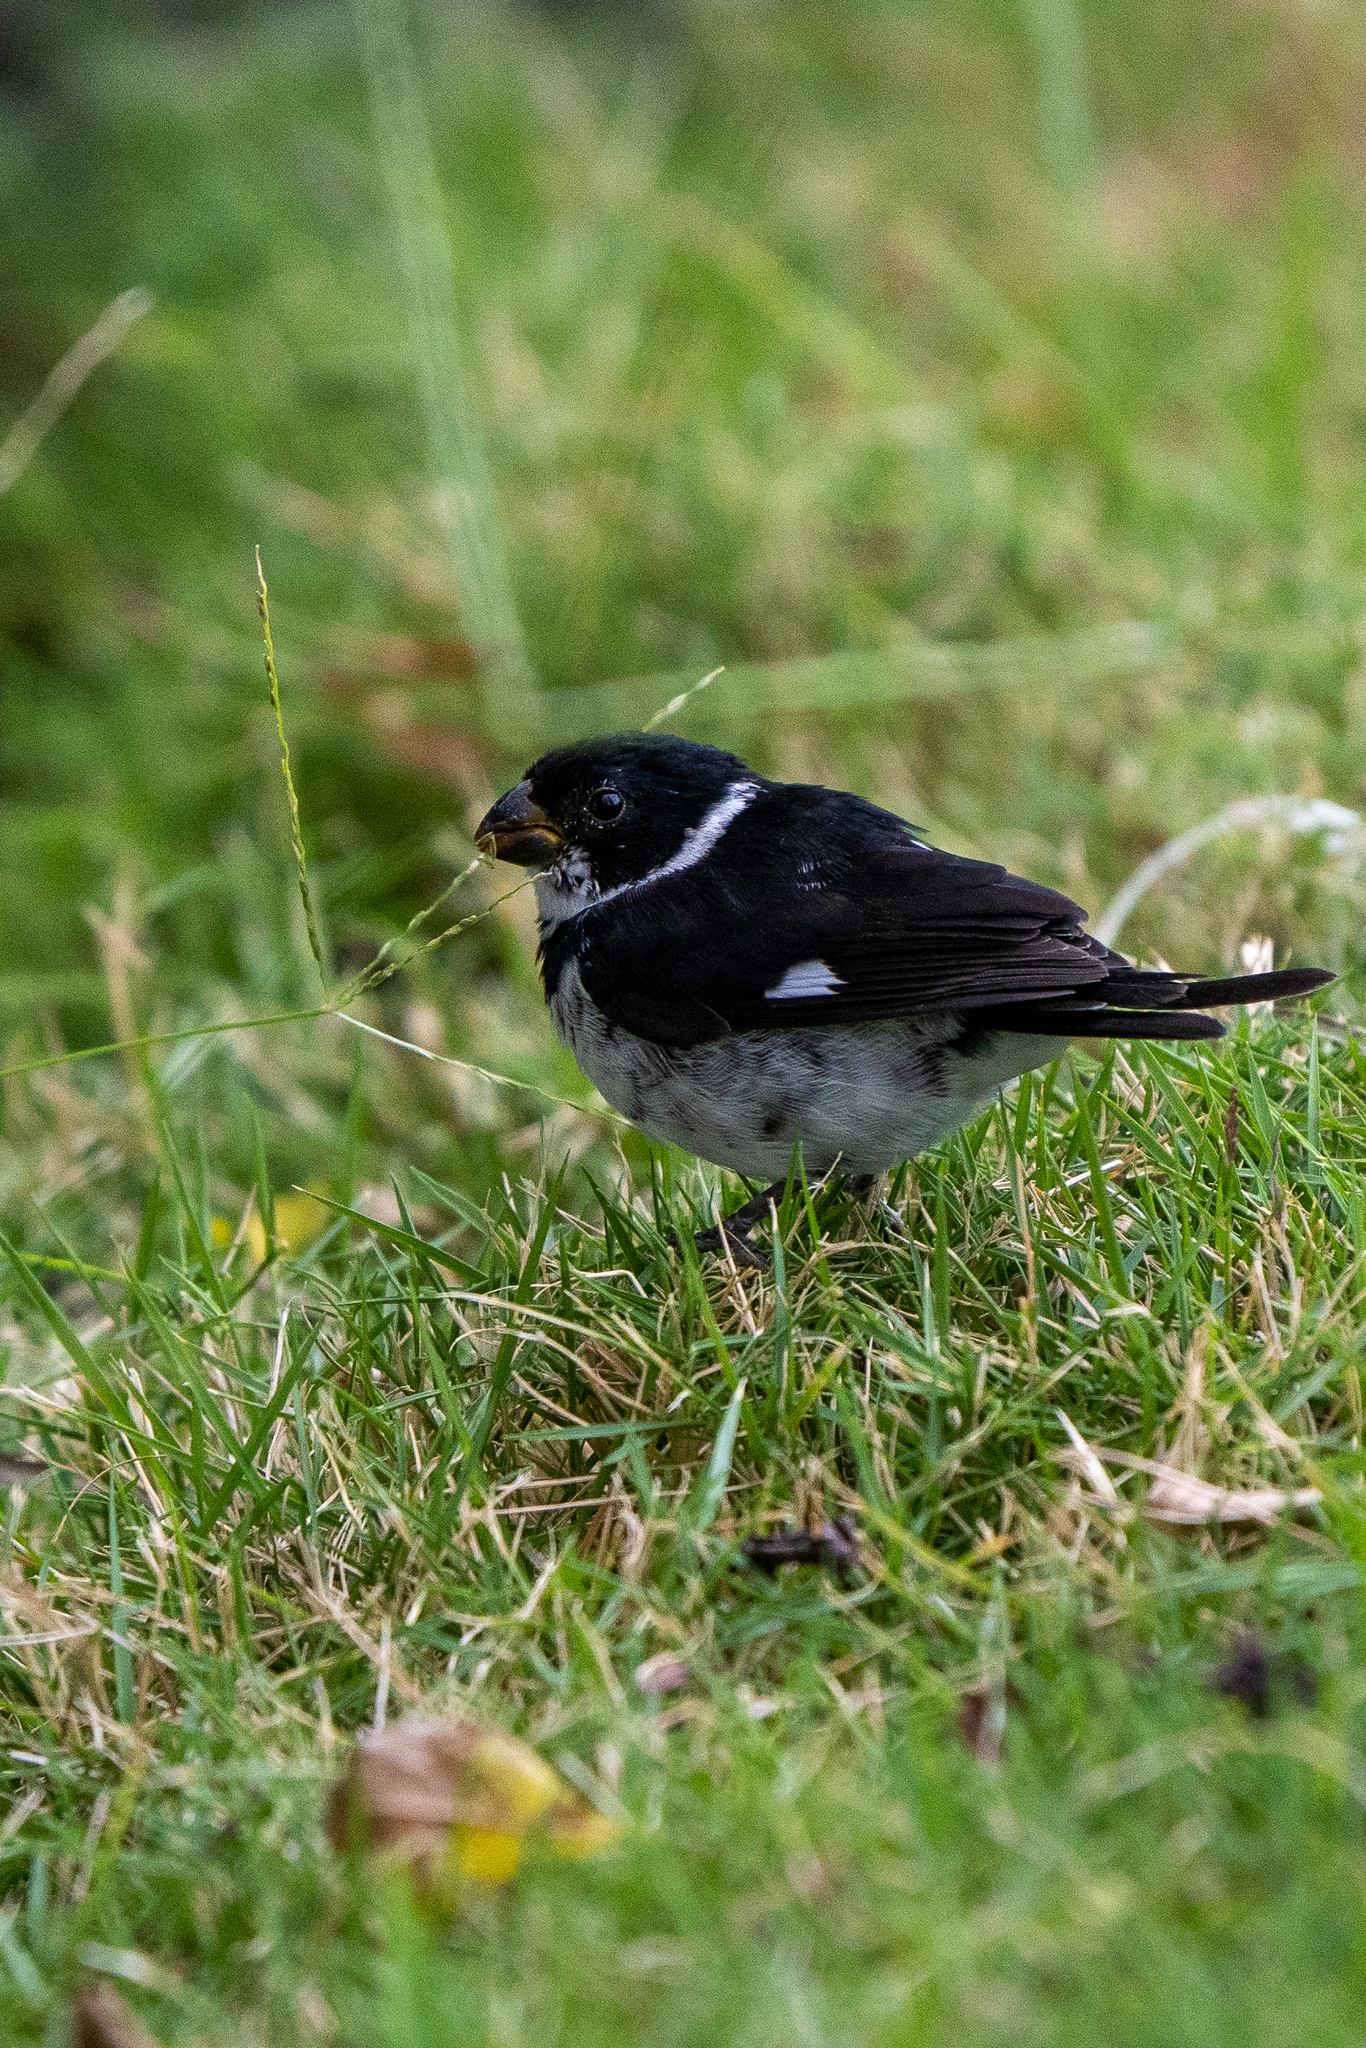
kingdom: Animalia
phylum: Chordata
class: Aves
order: Passeriformes
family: Thraupidae
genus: Sporophila
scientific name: Sporophila corvina
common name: Variable seedeater
